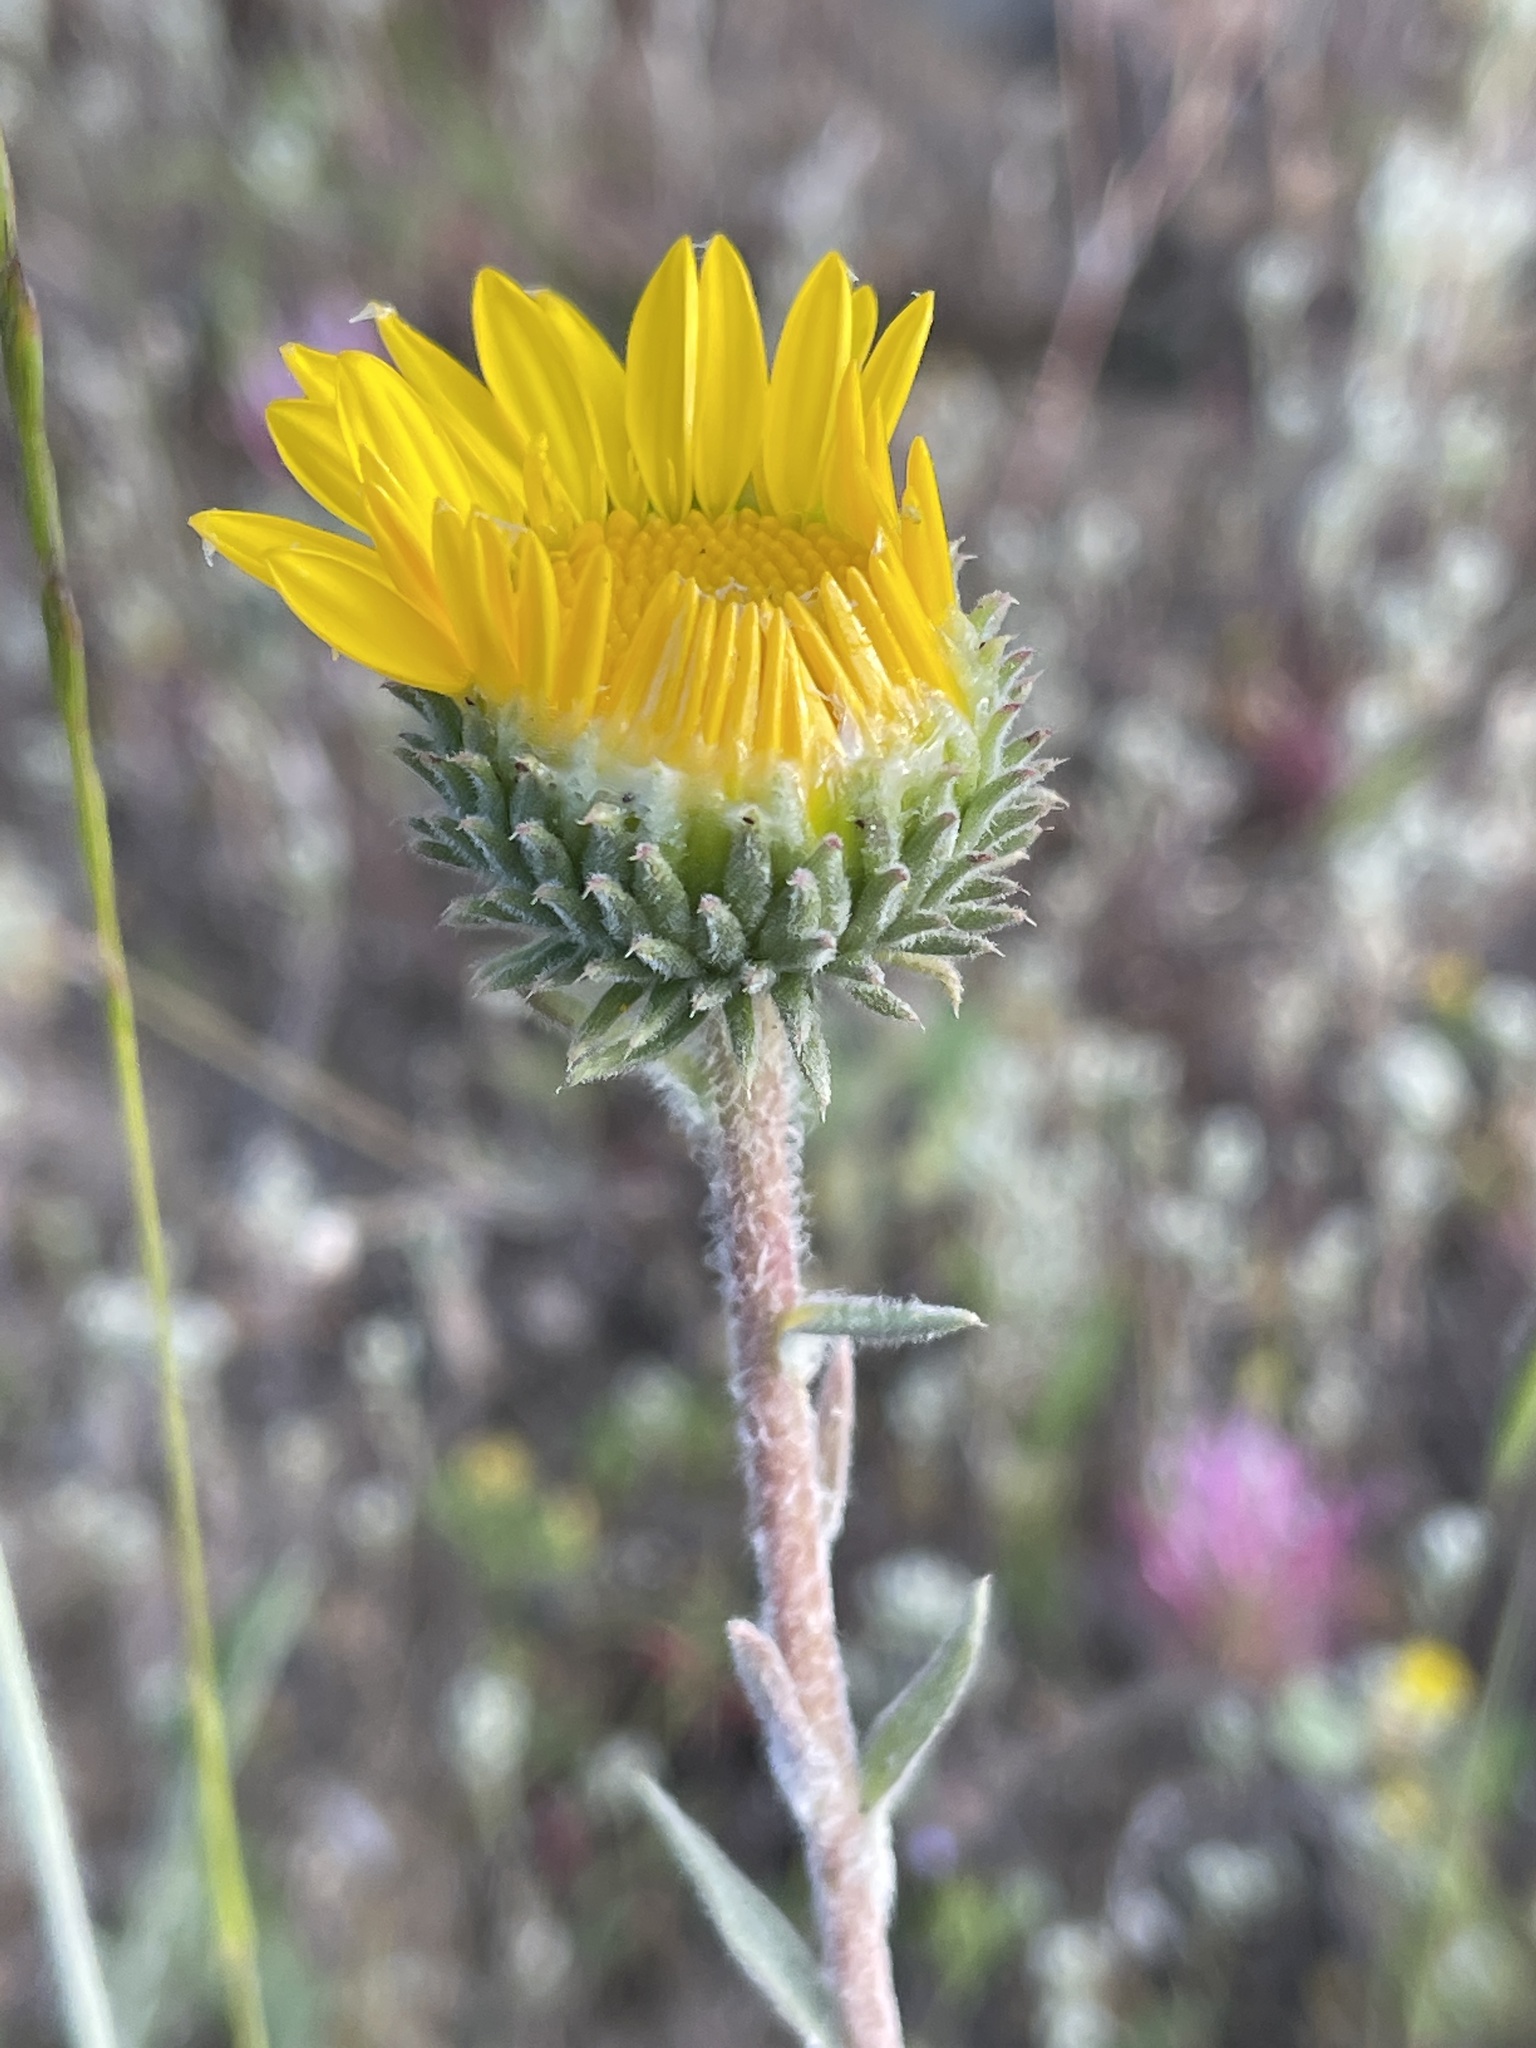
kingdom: Plantae
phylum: Tracheophyta
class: Magnoliopsida
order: Asterales
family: Asteraceae
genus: Grindelia
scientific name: Grindelia hirsutula
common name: Hairy gumweed
